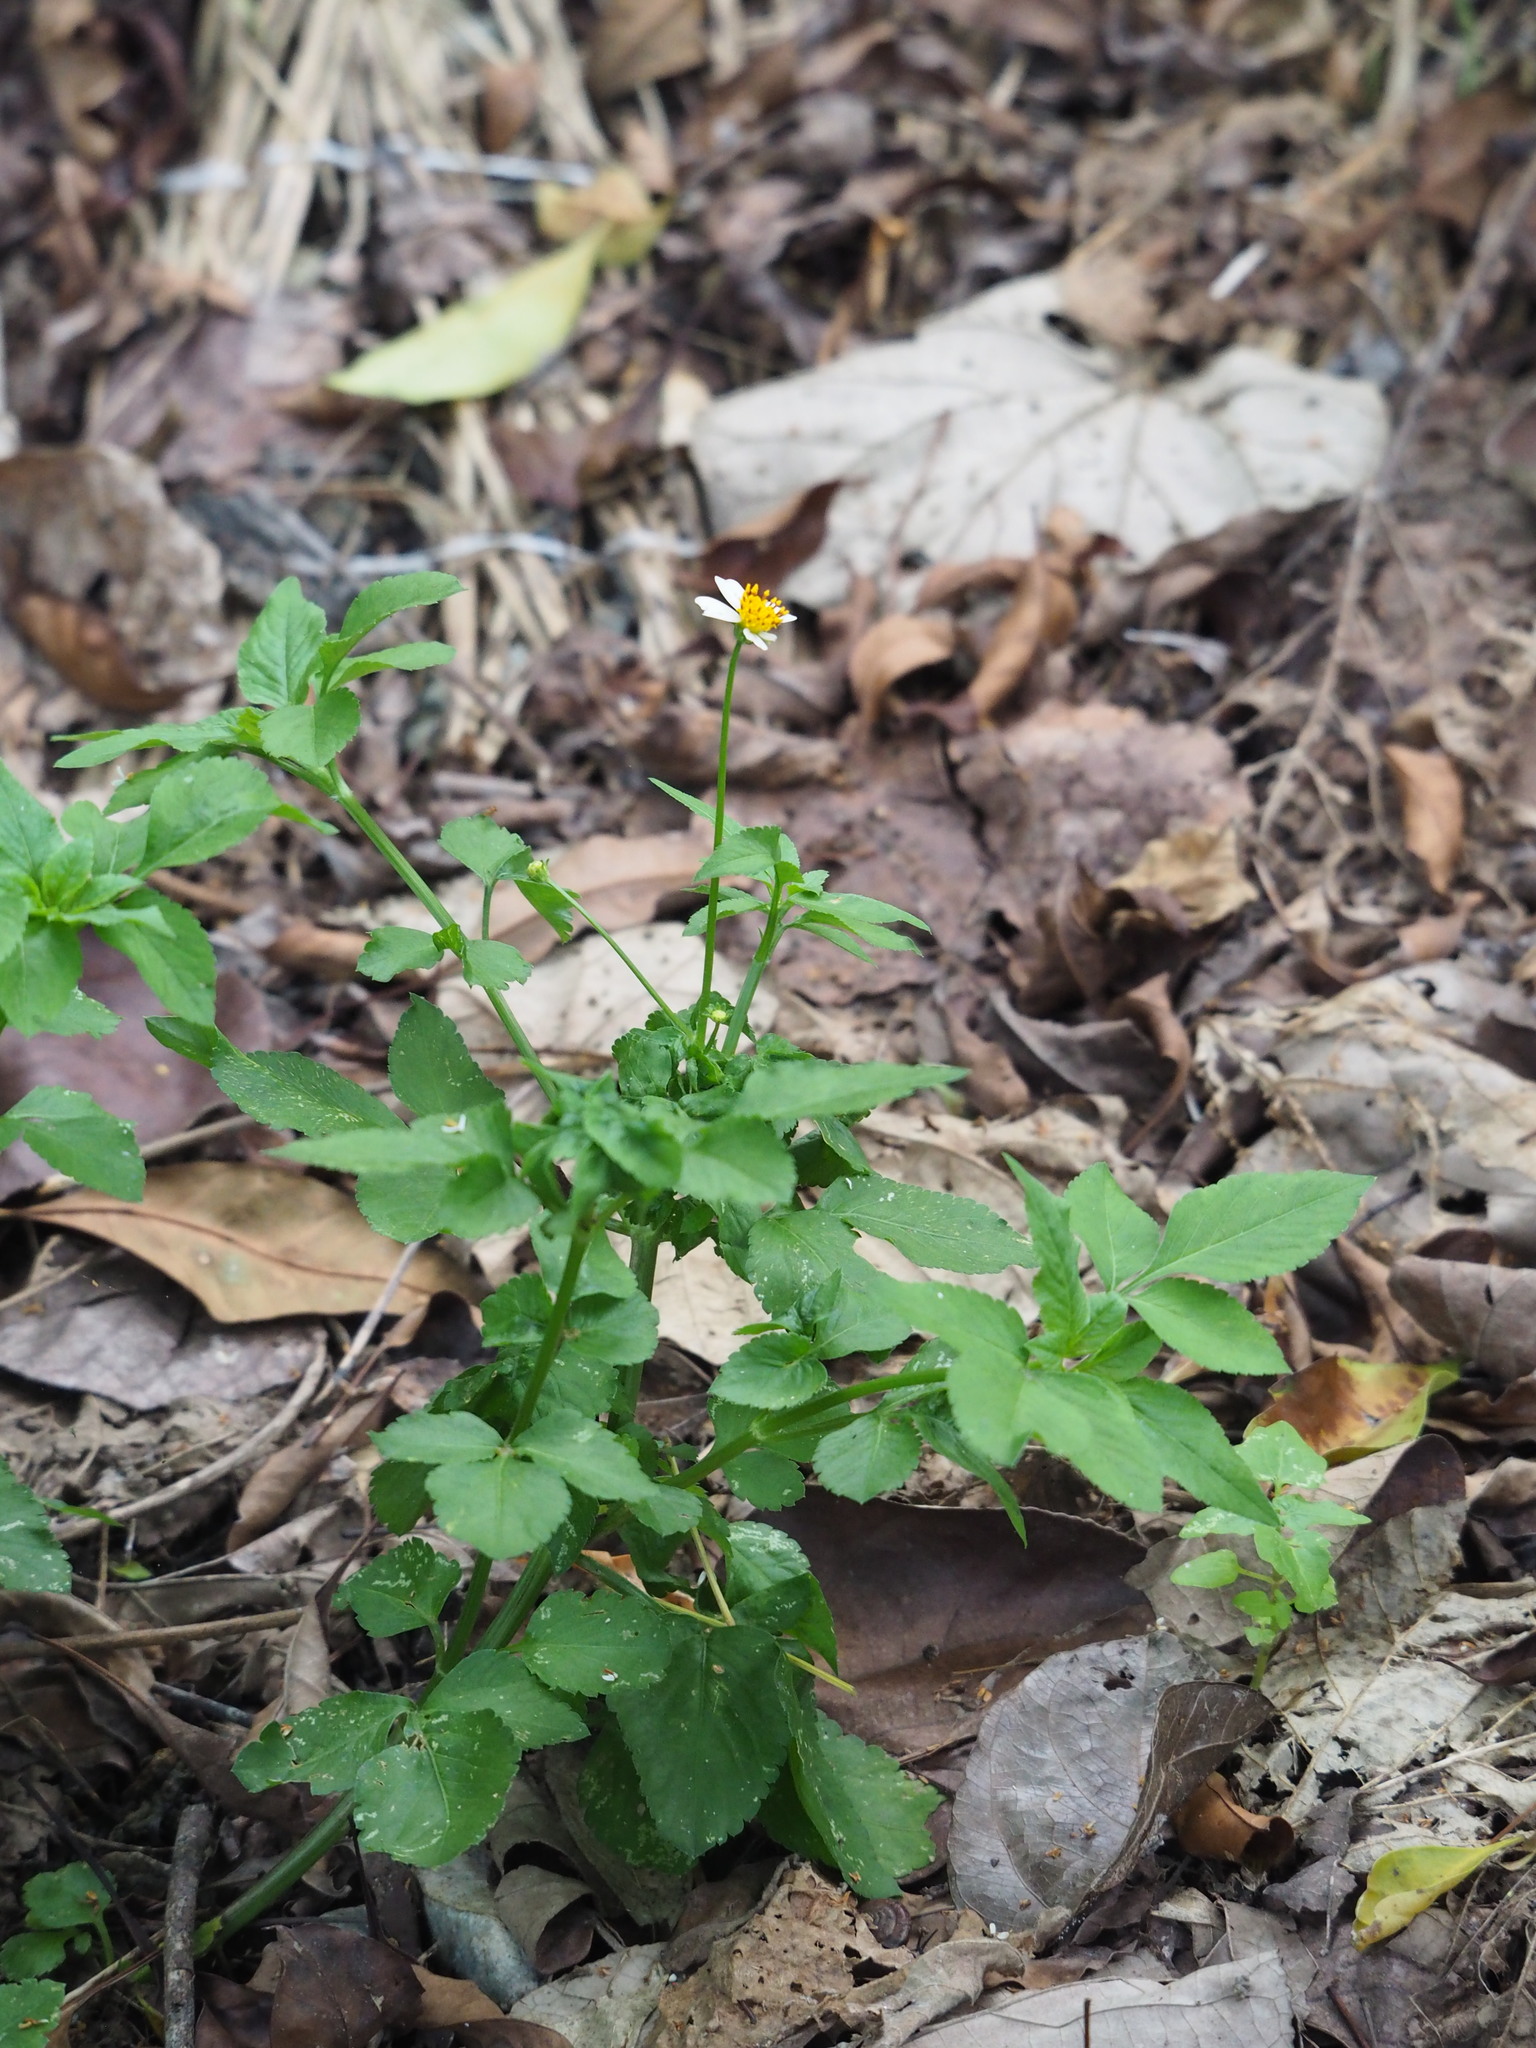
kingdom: Plantae
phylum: Tracheophyta
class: Magnoliopsida
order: Asterales
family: Asteraceae
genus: Bidens
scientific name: Bidens alba
